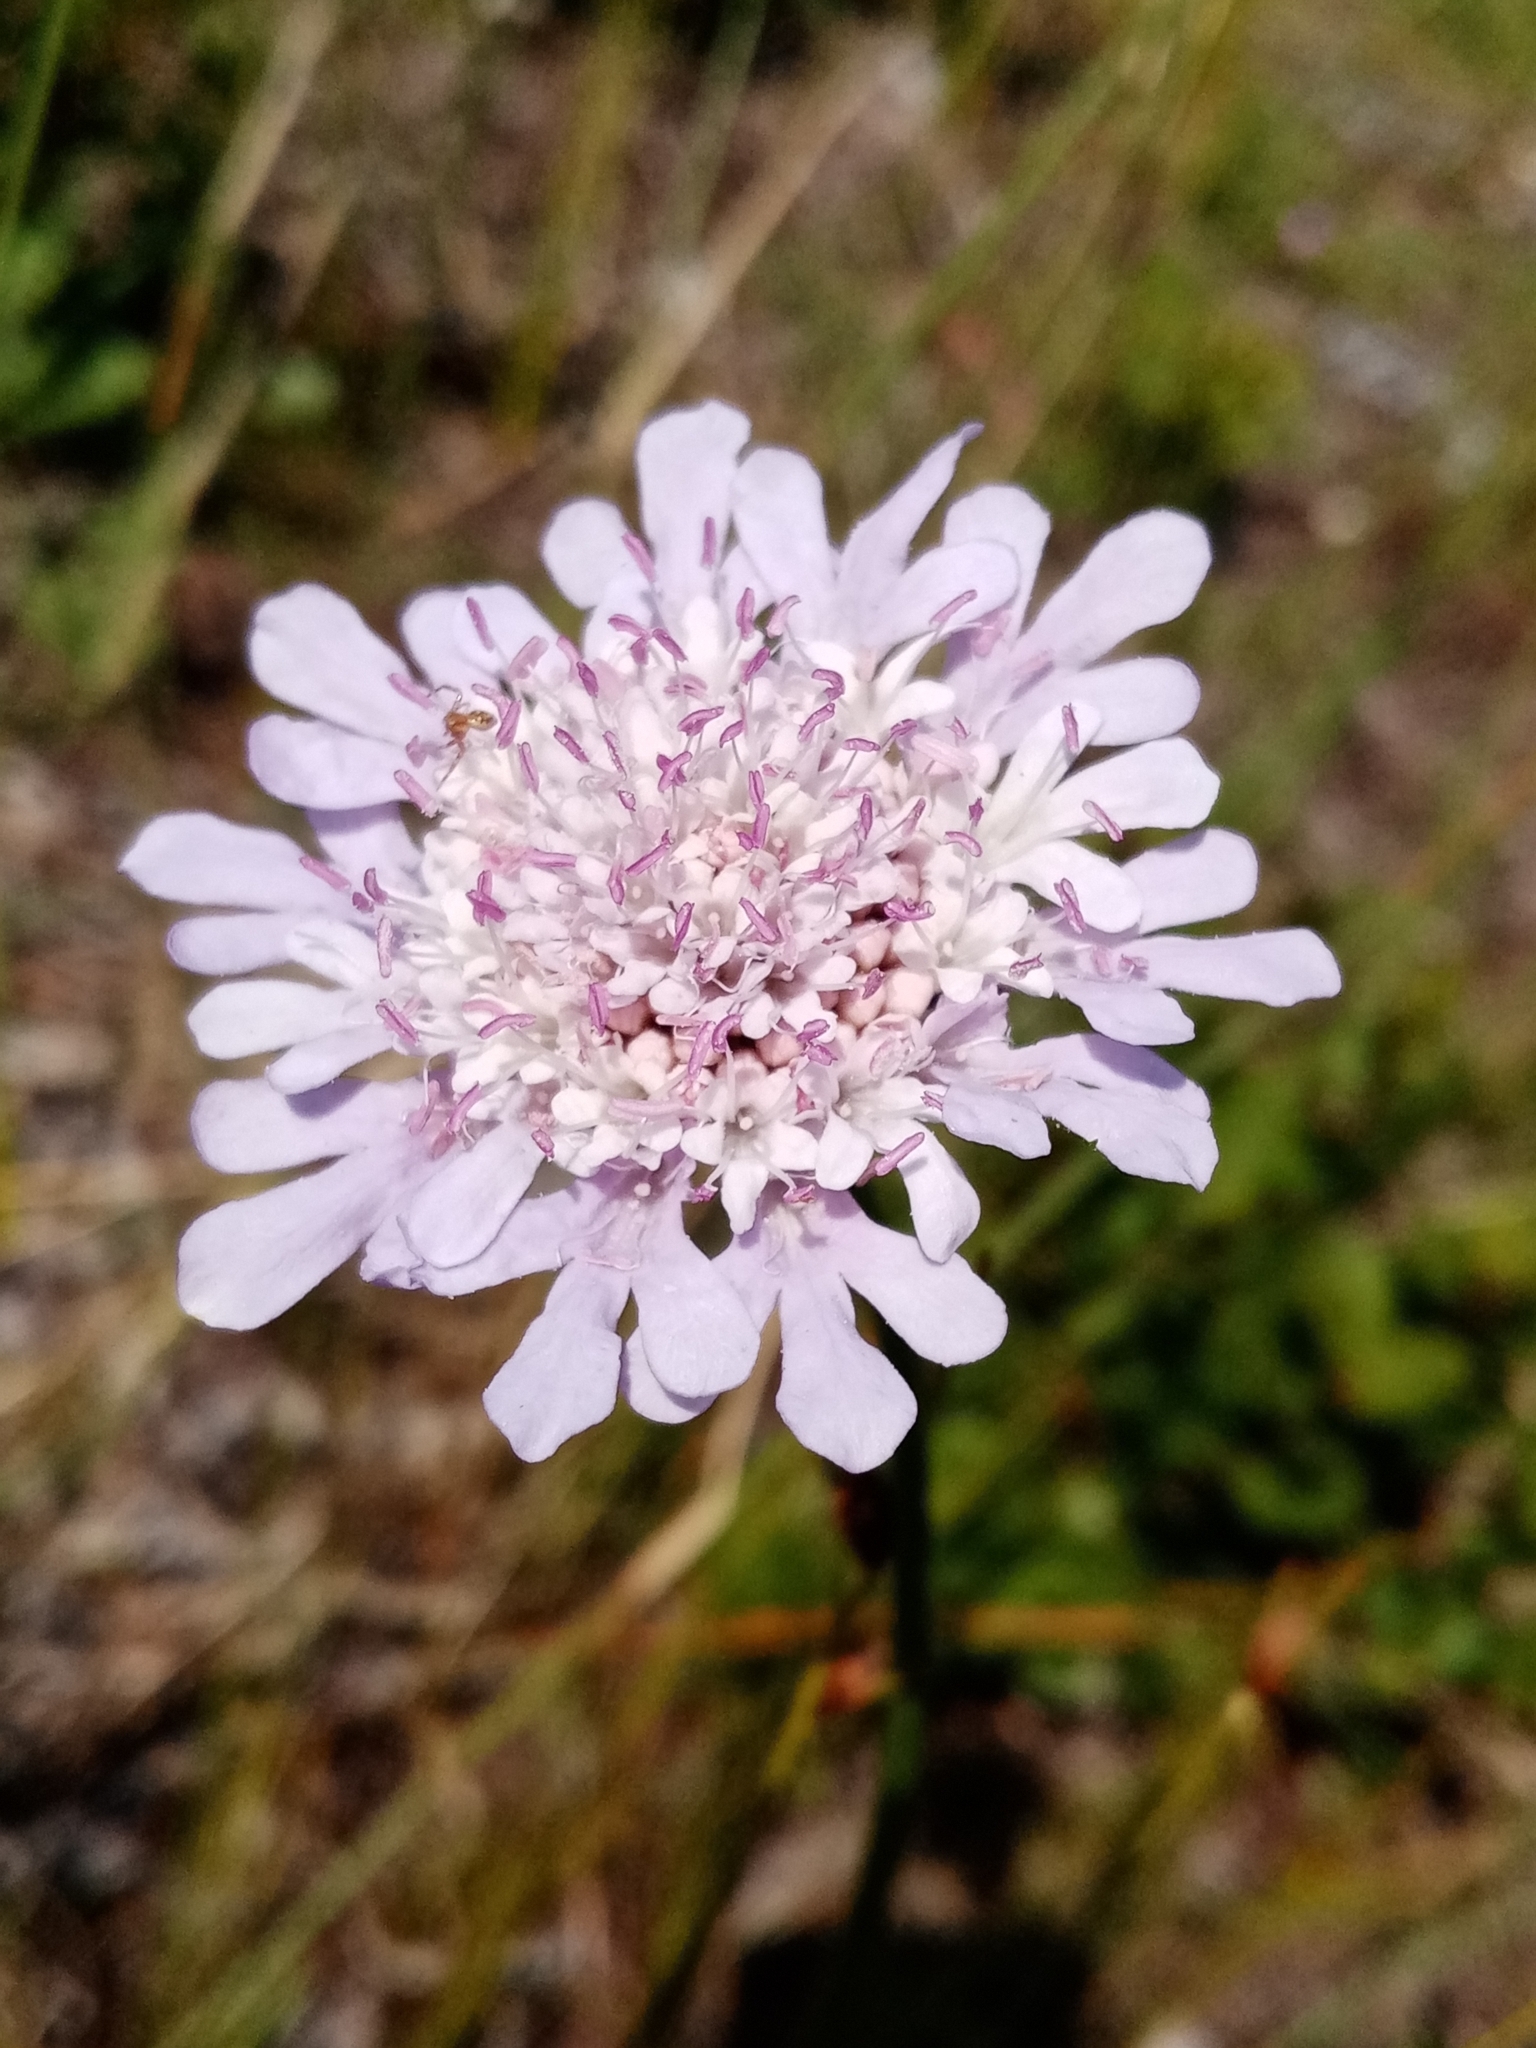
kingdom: Plantae
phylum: Tracheophyta
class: Magnoliopsida
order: Dipsacales
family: Caprifoliaceae
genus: Scabiosa
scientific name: Scabiosa columbaria
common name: Small scabious
